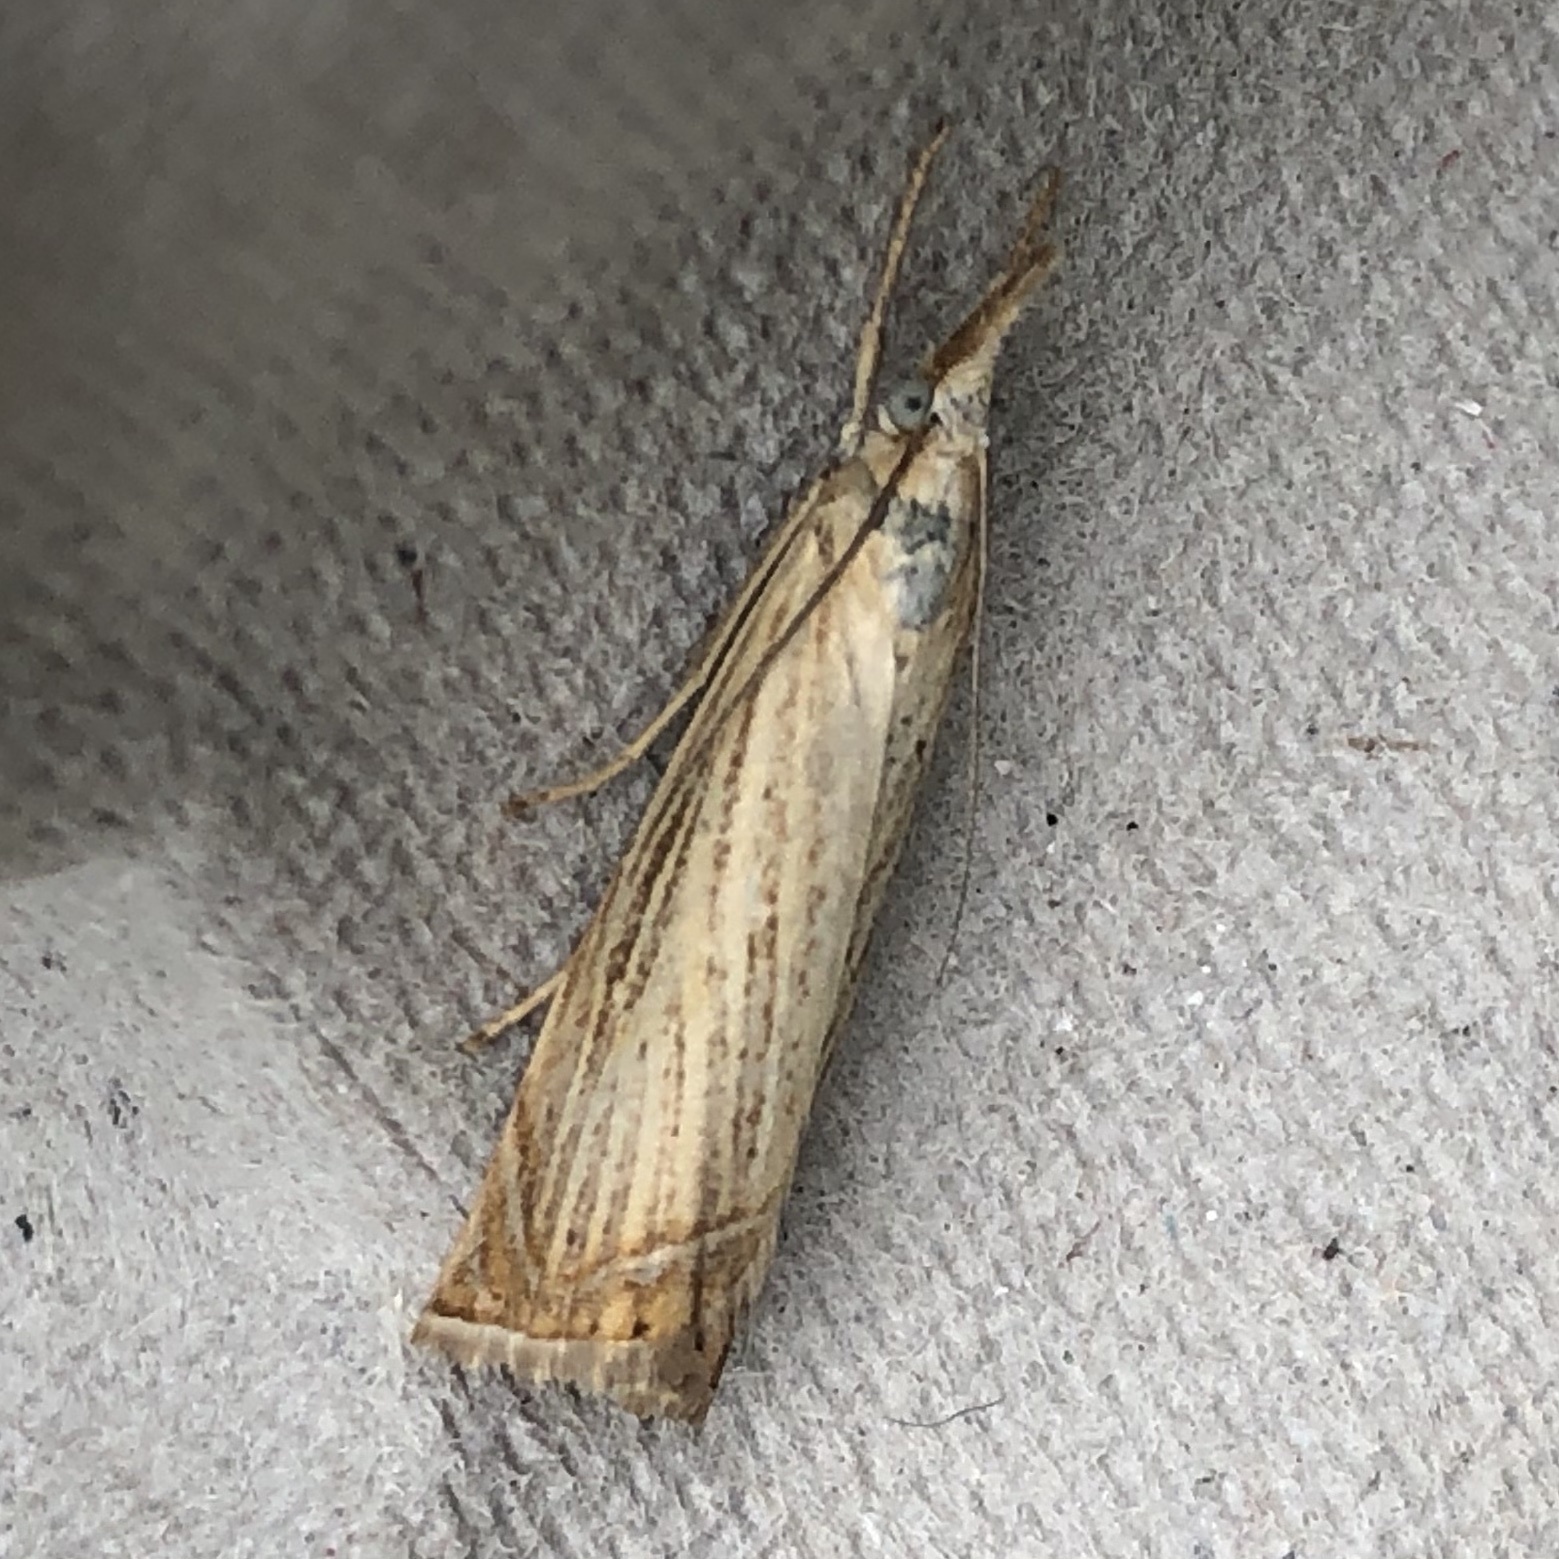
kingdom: Animalia
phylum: Arthropoda
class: Insecta
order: Lepidoptera
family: Crambidae
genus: Chrysoteuchia
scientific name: Chrysoteuchia culmella
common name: Garden grass-veneer
